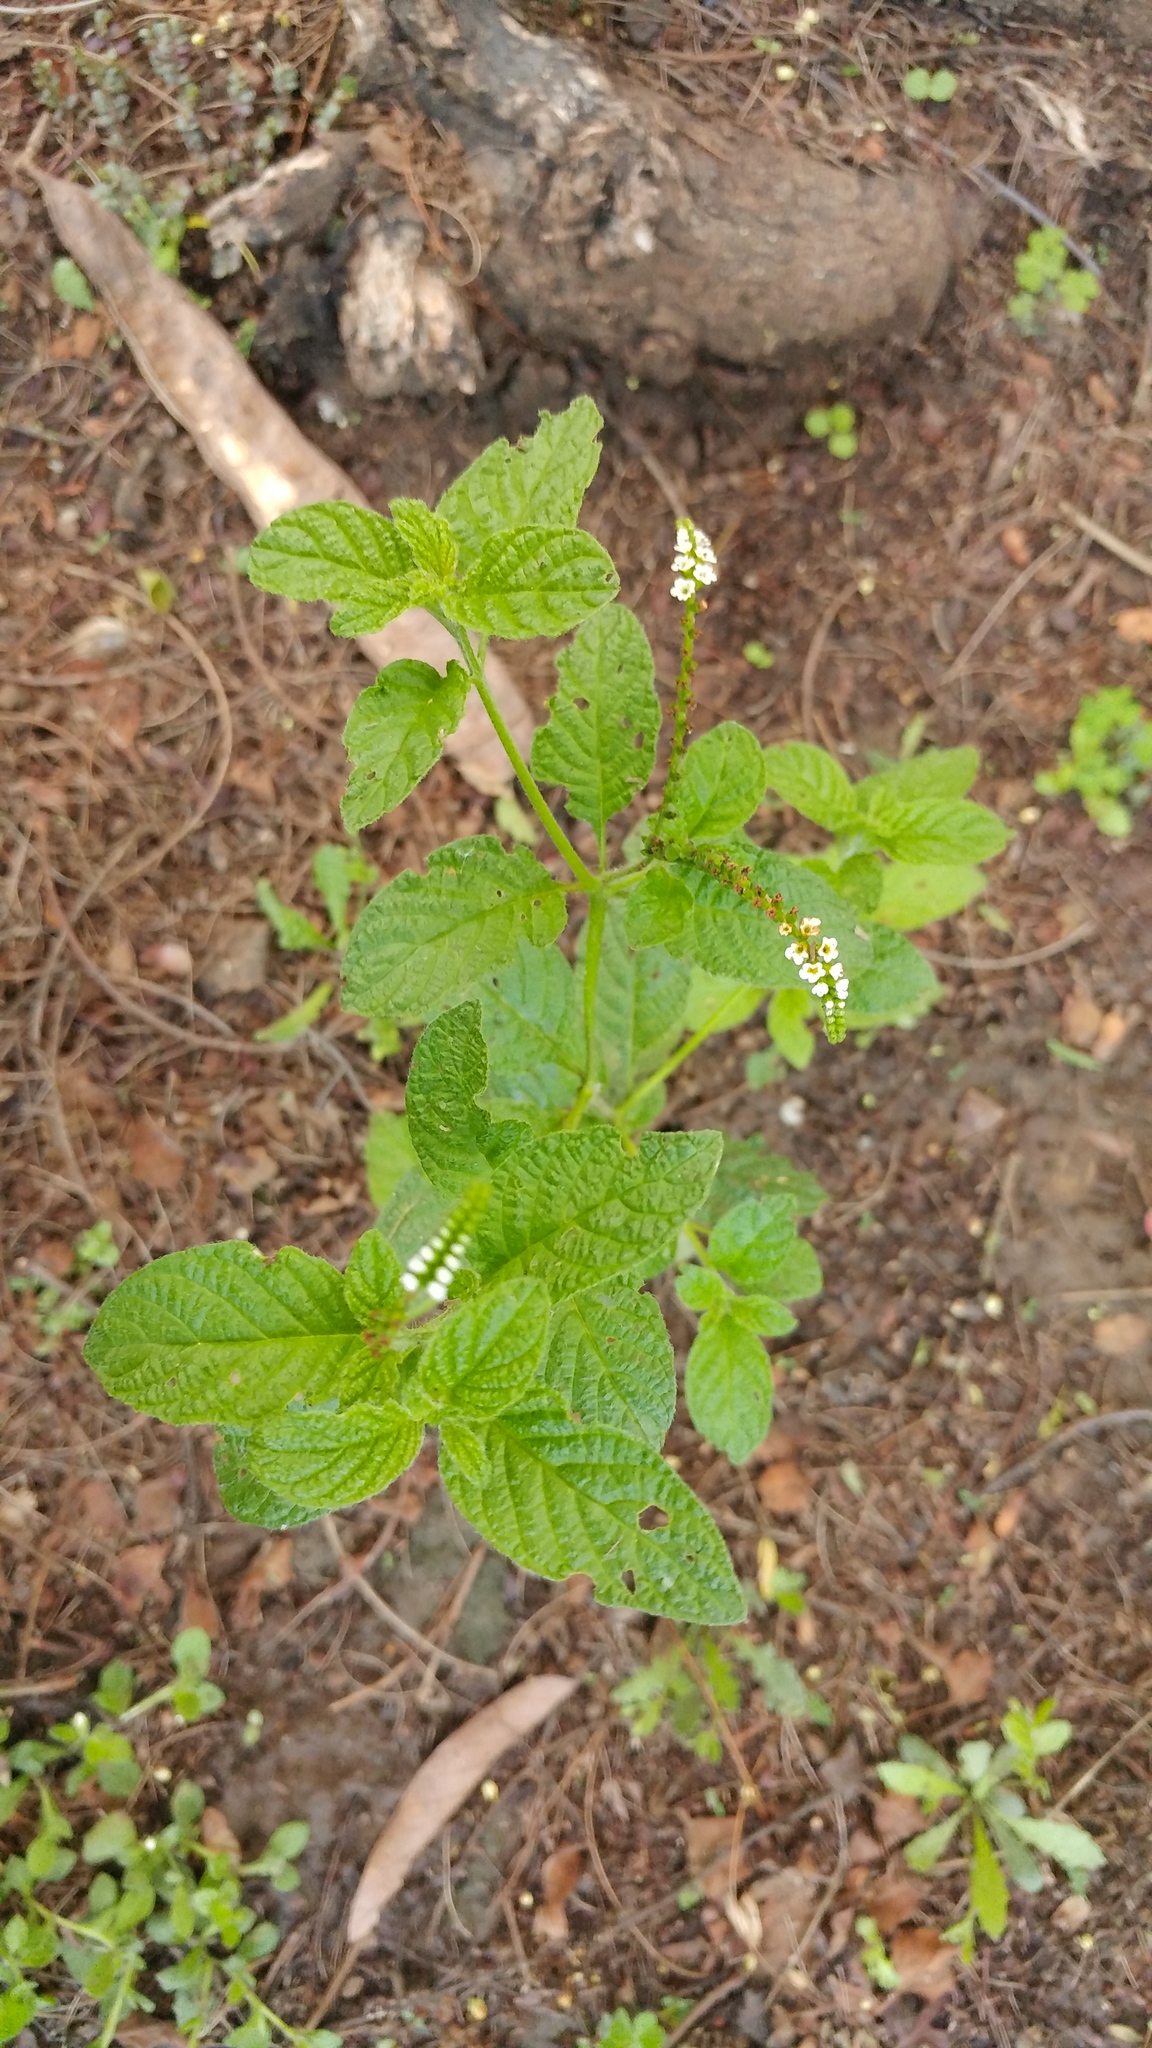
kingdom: Plantae
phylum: Tracheophyta
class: Magnoliopsida
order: Boraginales
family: Heliotropiaceae
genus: Heliotropium
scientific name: Heliotropium angiospermum
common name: Eye bright
